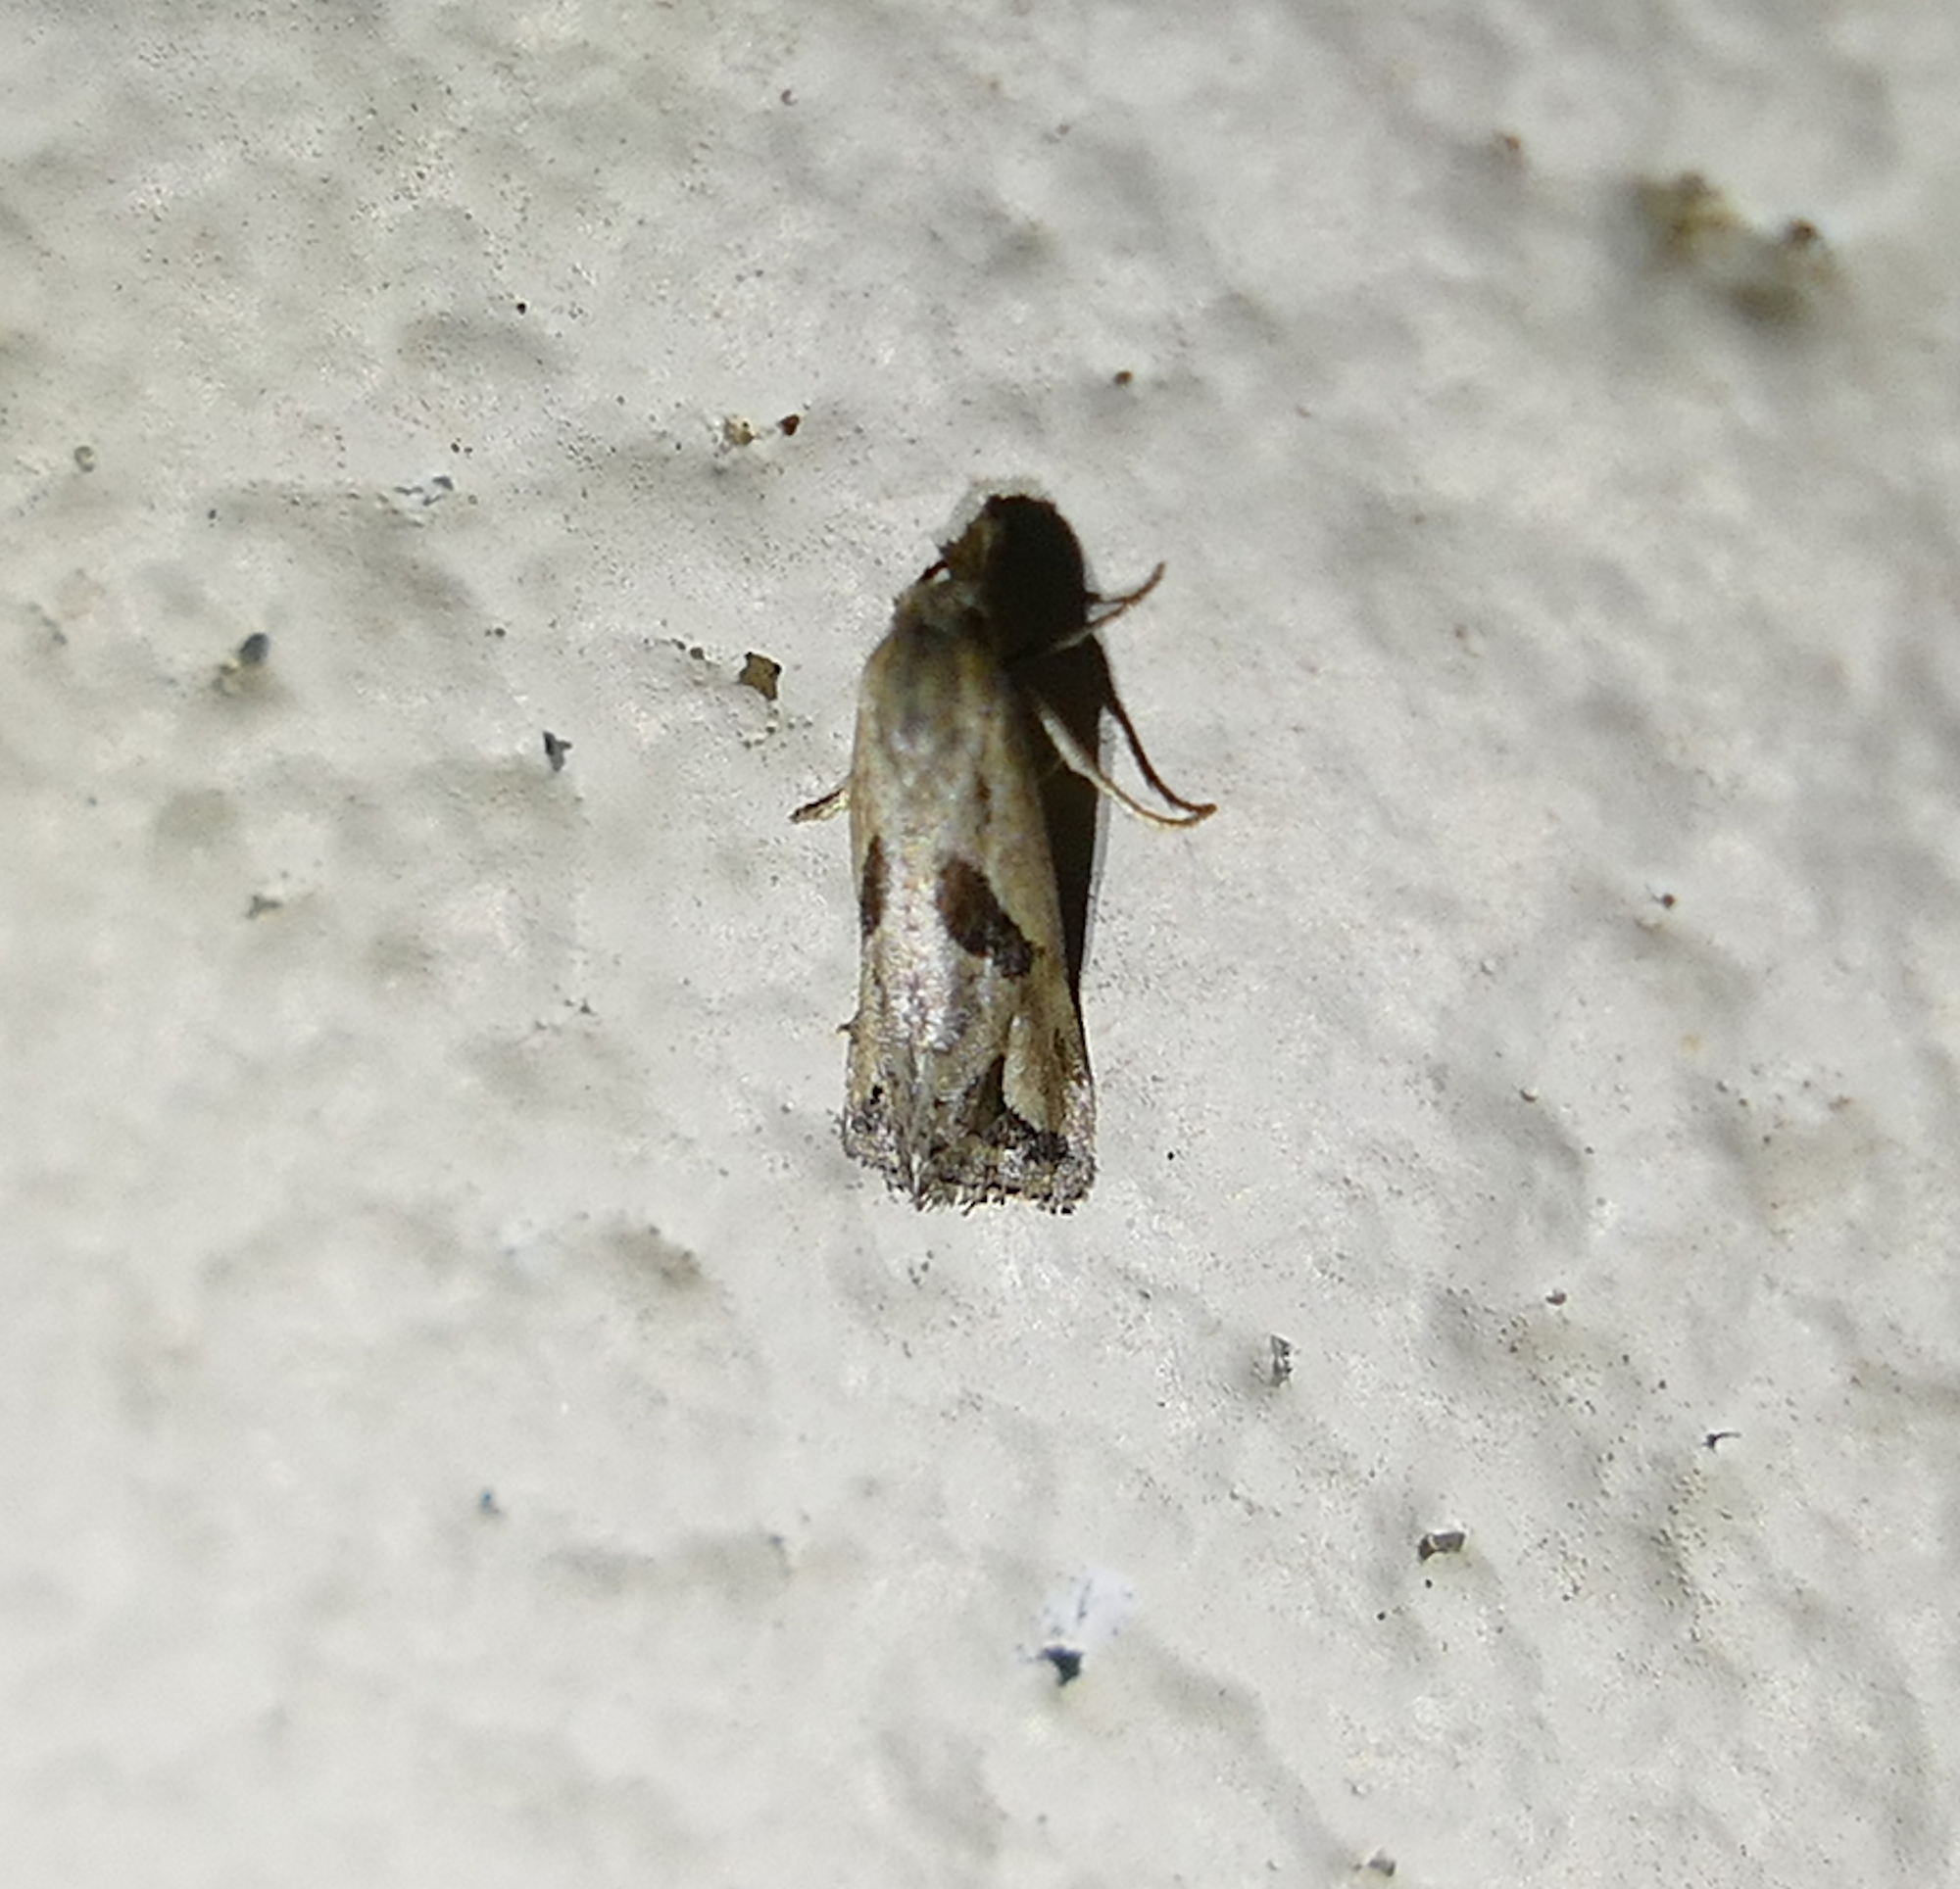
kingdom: Animalia
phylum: Arthropoda
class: Insecta
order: Lepidoptera
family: Tortricidae
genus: Eugnosta
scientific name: Eugnosta bimaculana
